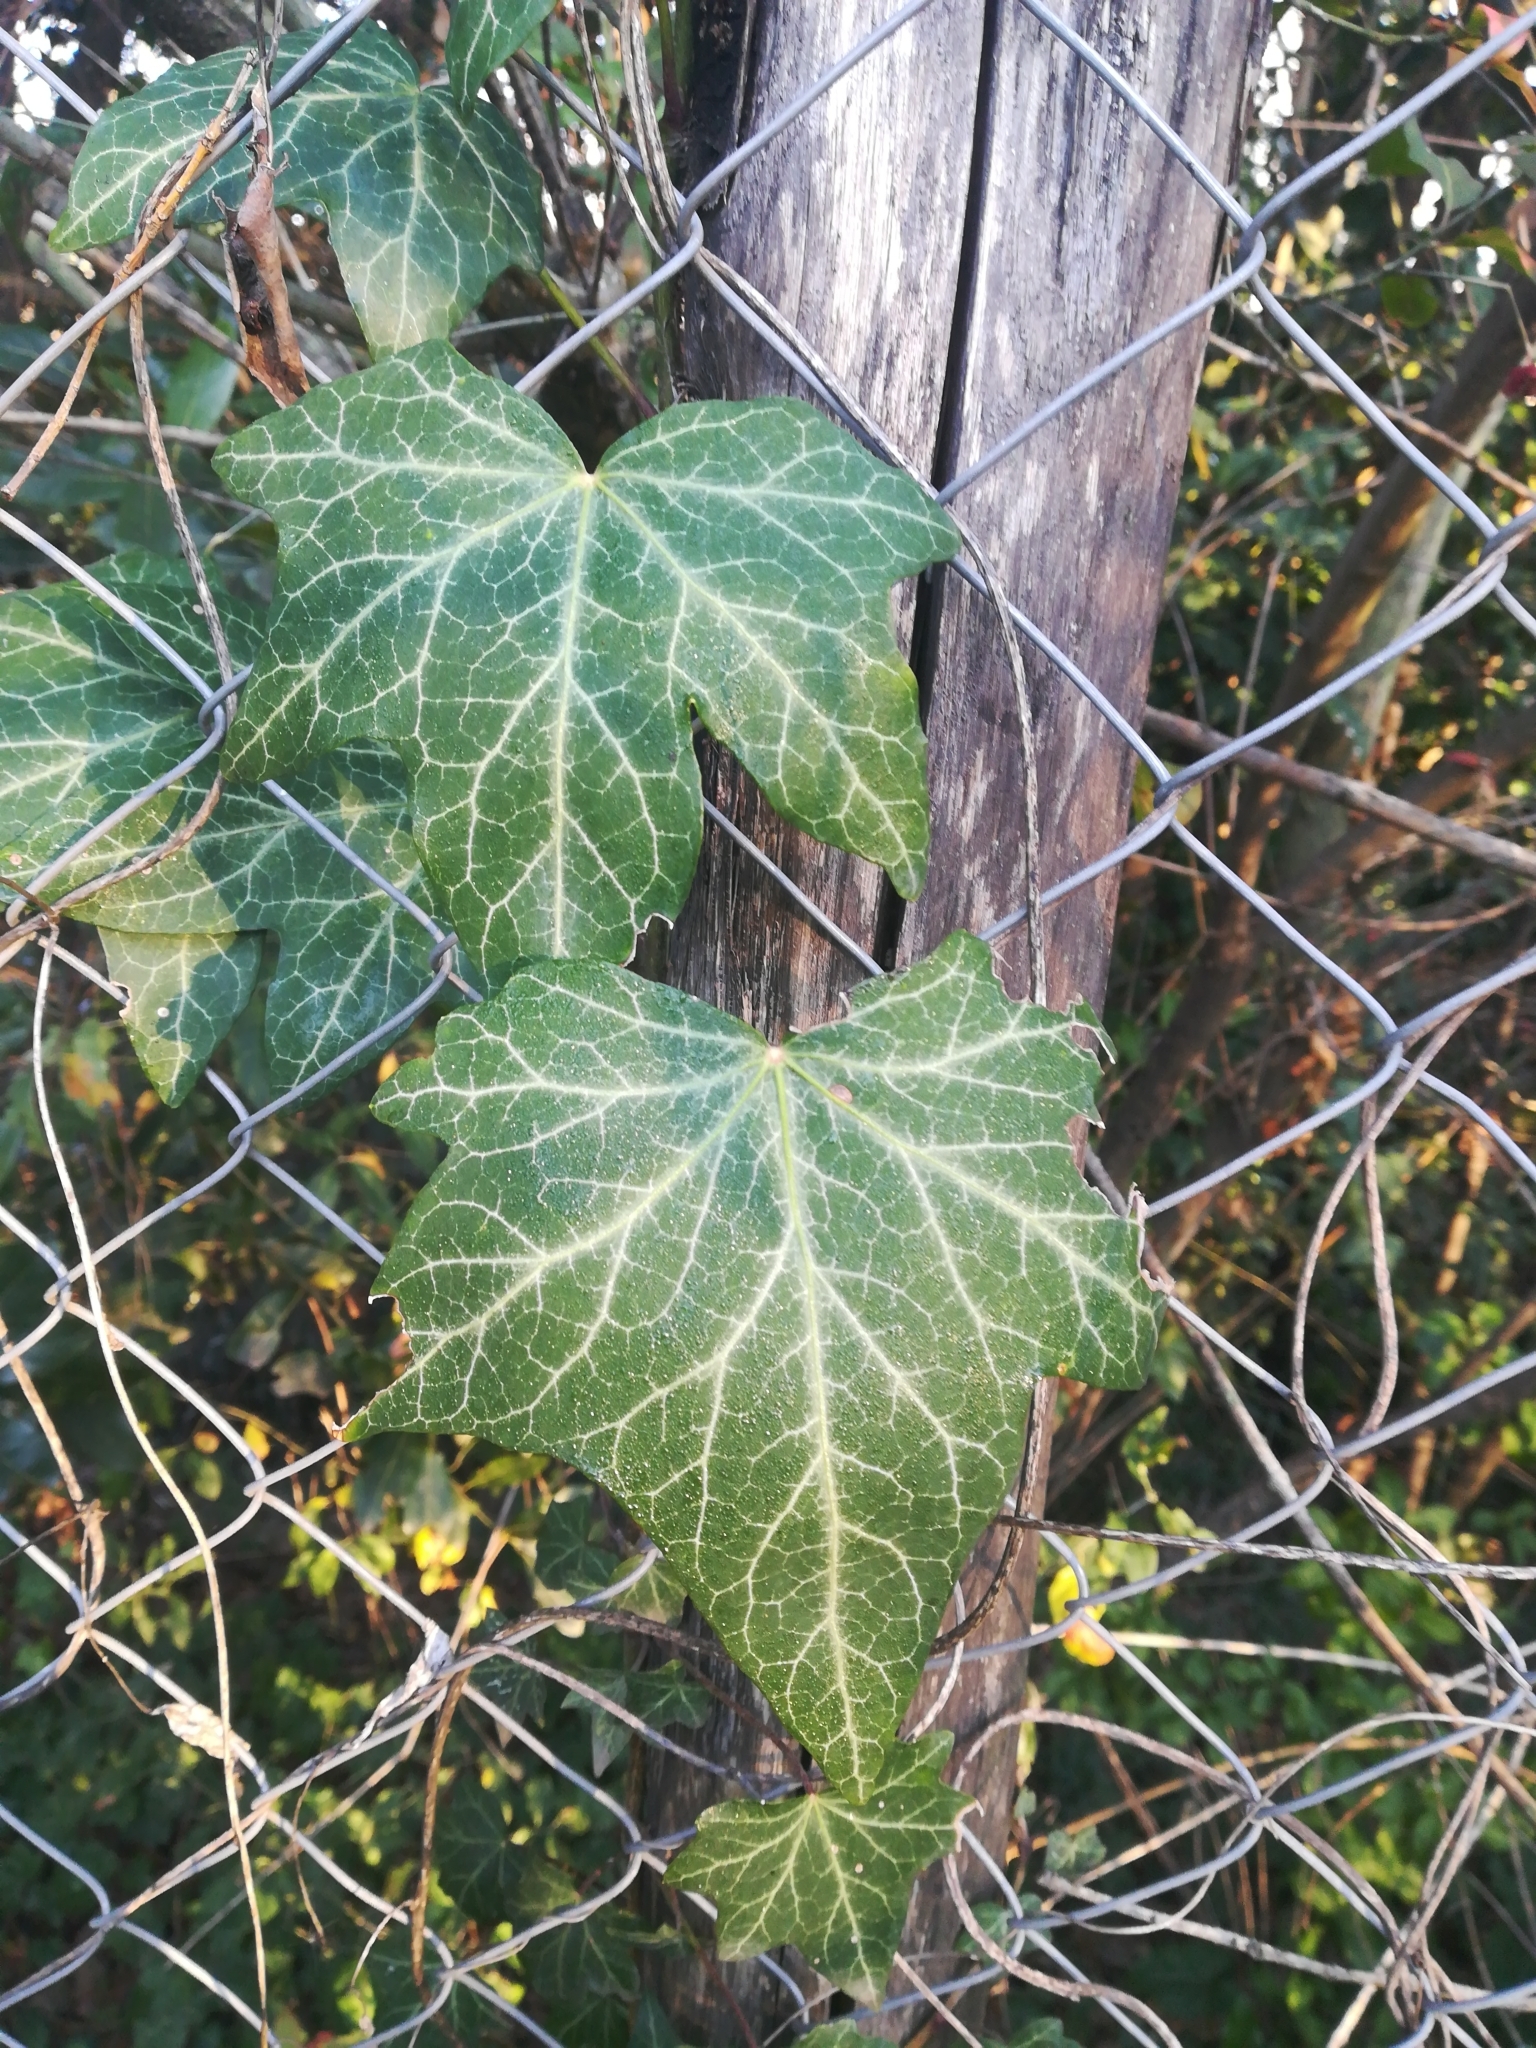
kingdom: Plantae
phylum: Tracheophyta
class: Magnoliopsida
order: Apiales
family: Araliaceae
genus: Hedera
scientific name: Hedera helix
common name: Ivy
